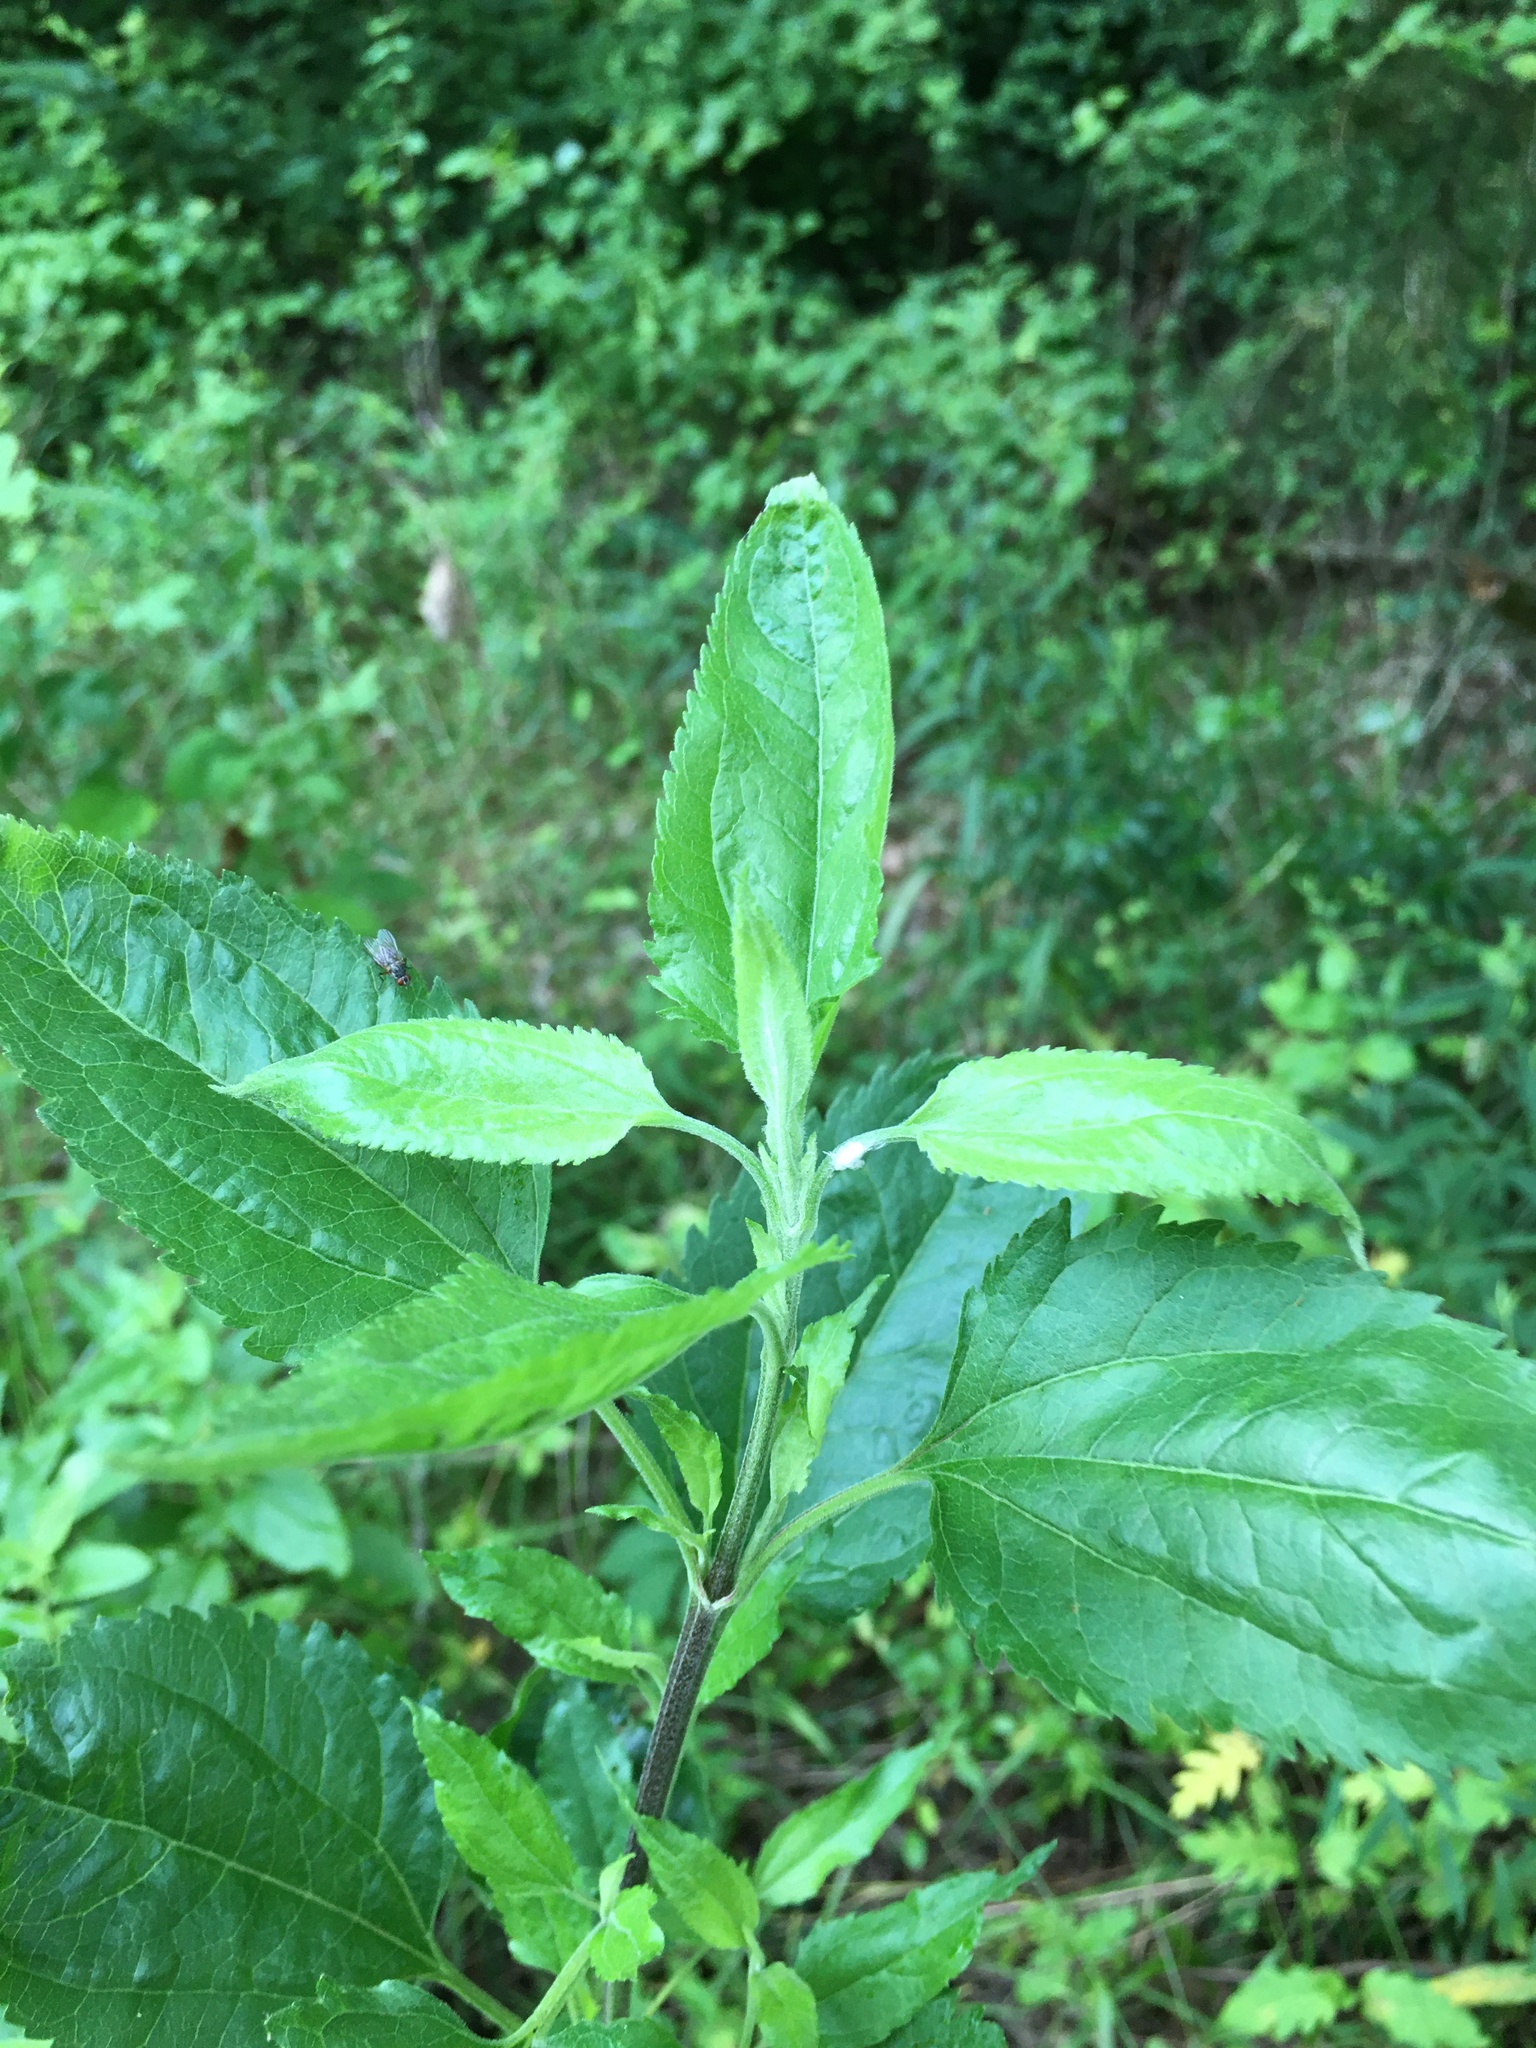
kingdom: Plantae
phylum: Tracheophyta
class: Magnoliopsida
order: Asterales
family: Asteraceae
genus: Eupatorium
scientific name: Eupatorium serotinum
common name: Late boneset
